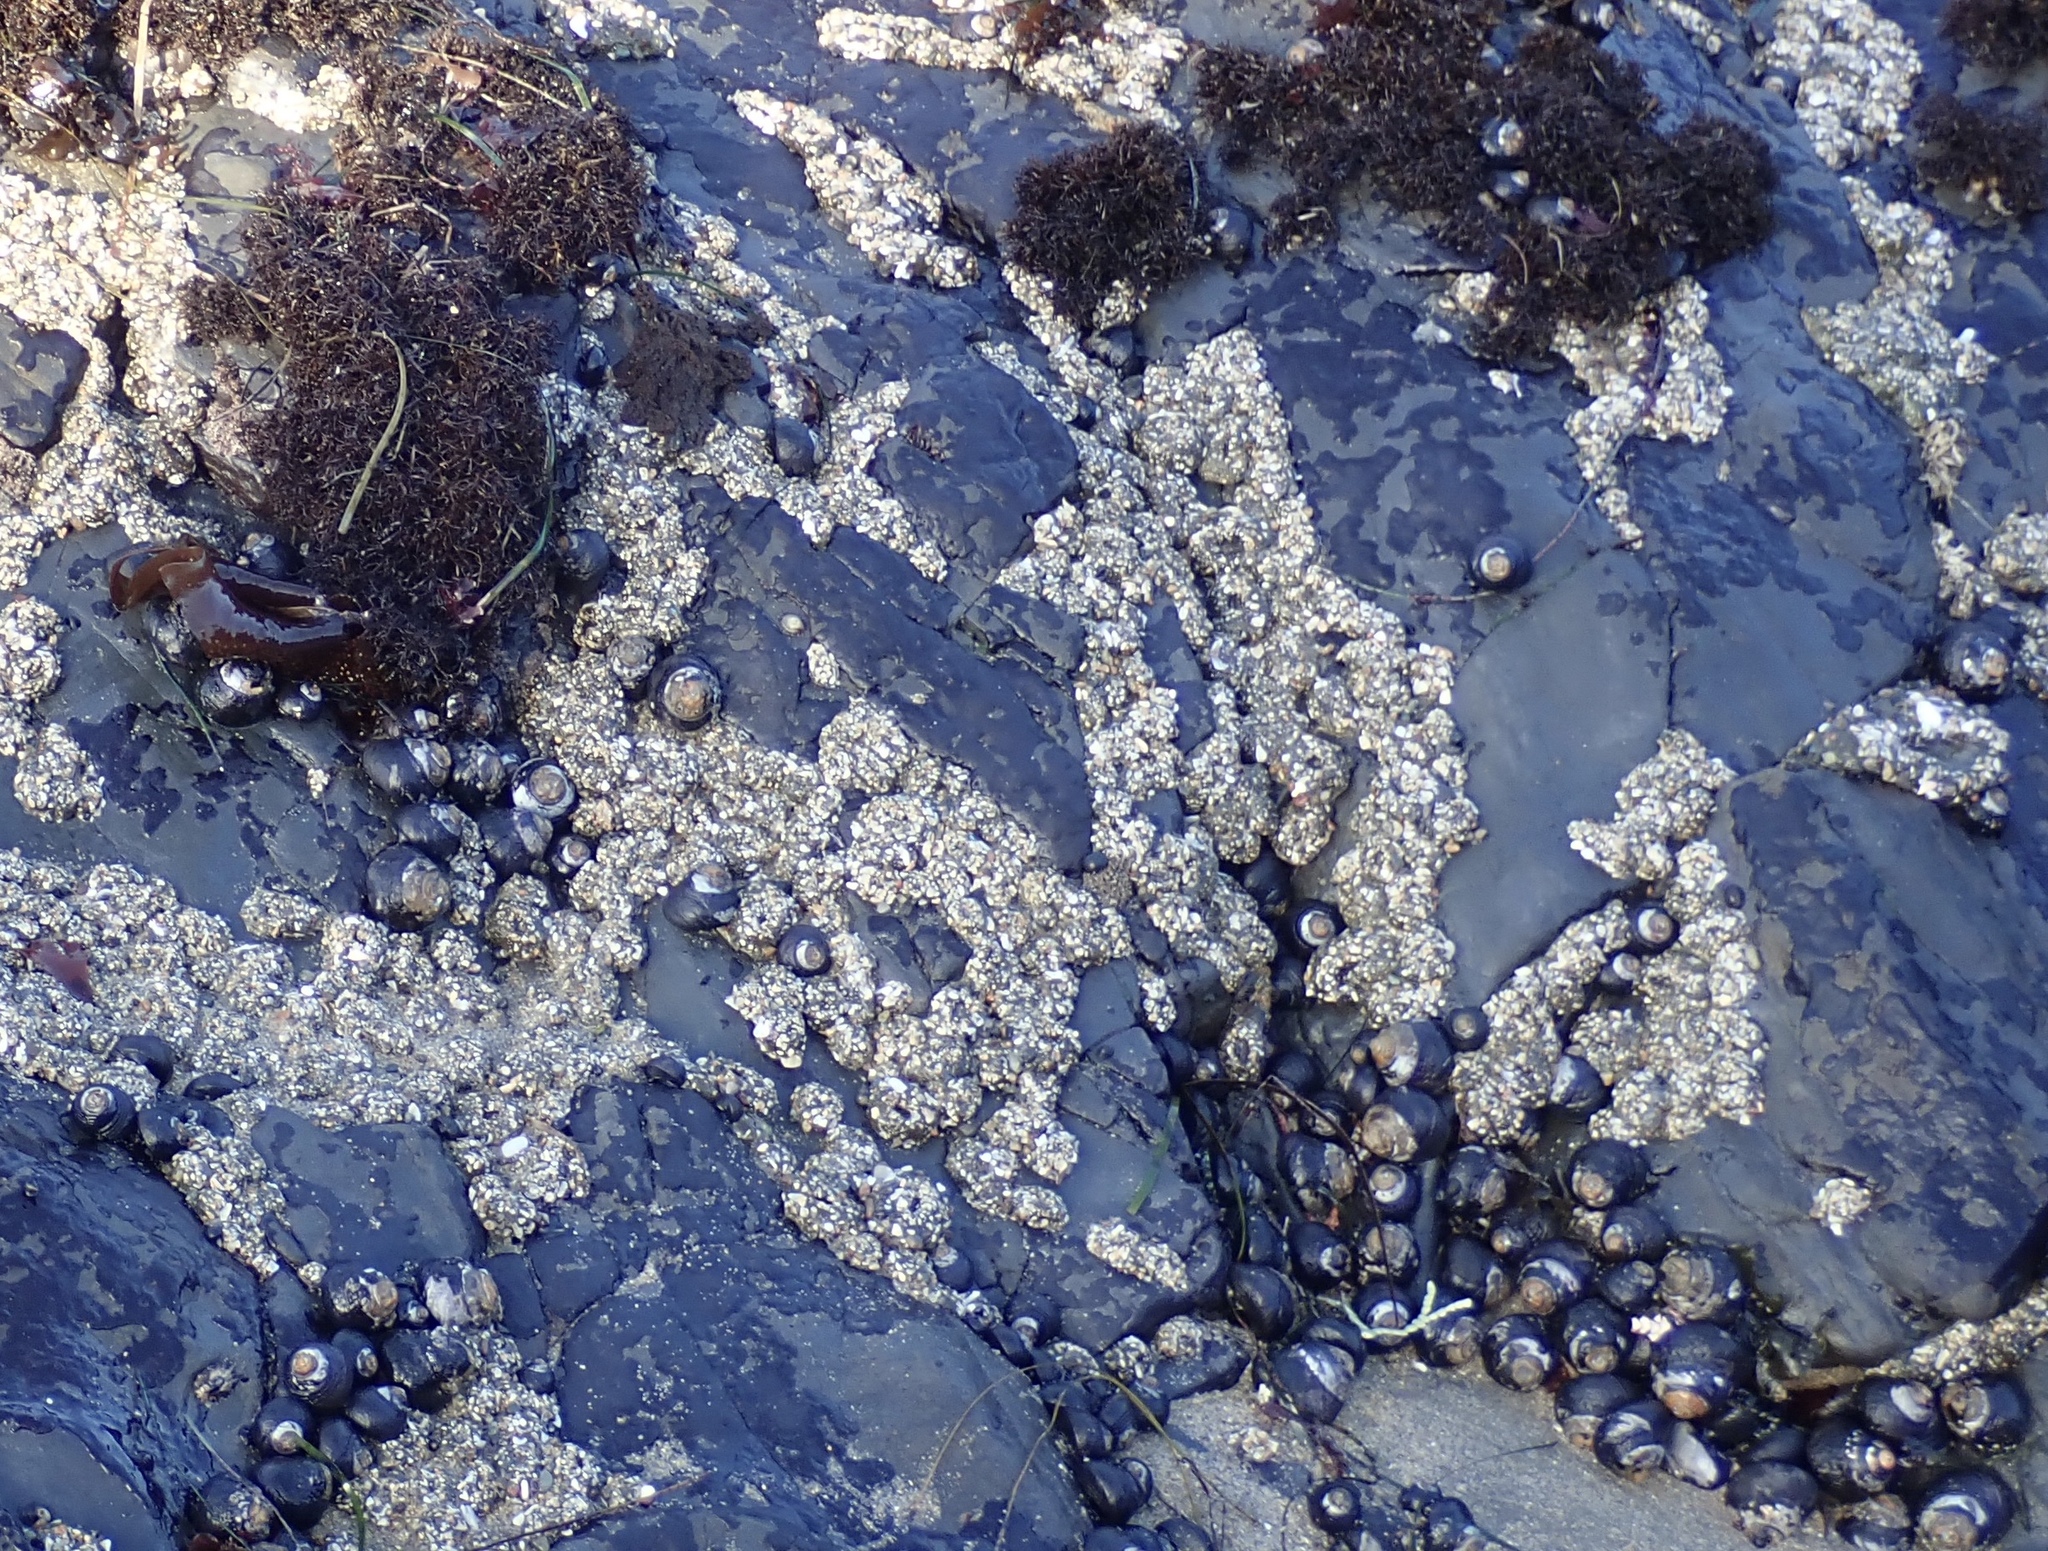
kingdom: Animalia
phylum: Cnidaria
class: Anthozoa
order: Actiniaria
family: Actiniidae
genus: Anthopleura
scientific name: Anthopleura elegantissima
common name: Clonal anemone
